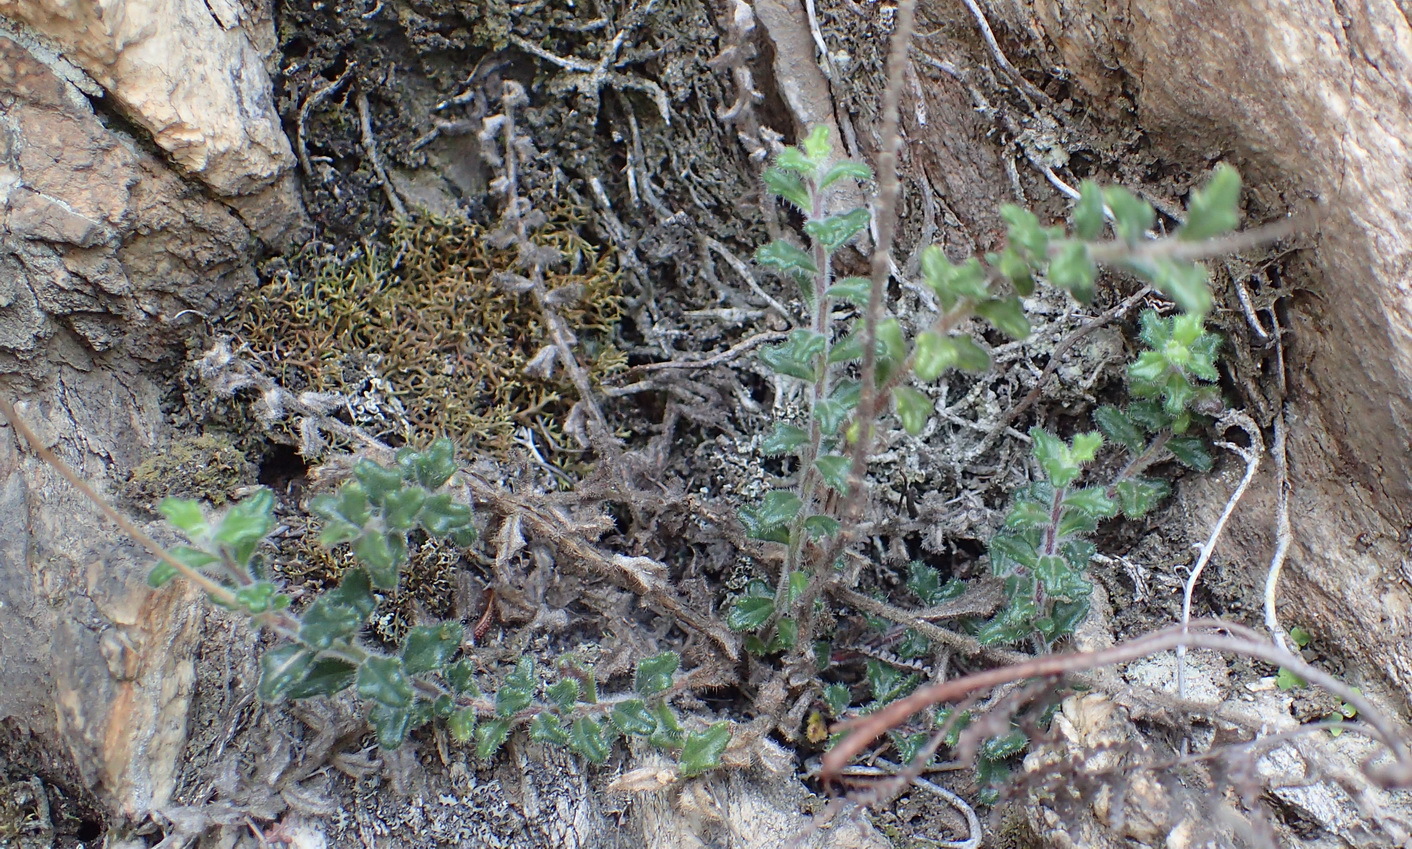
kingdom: Plantae
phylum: Tracheophyta
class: Magnoliopsida
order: Asterales
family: Campanulaceae
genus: Lobelia
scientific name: Lobelia dichroma
